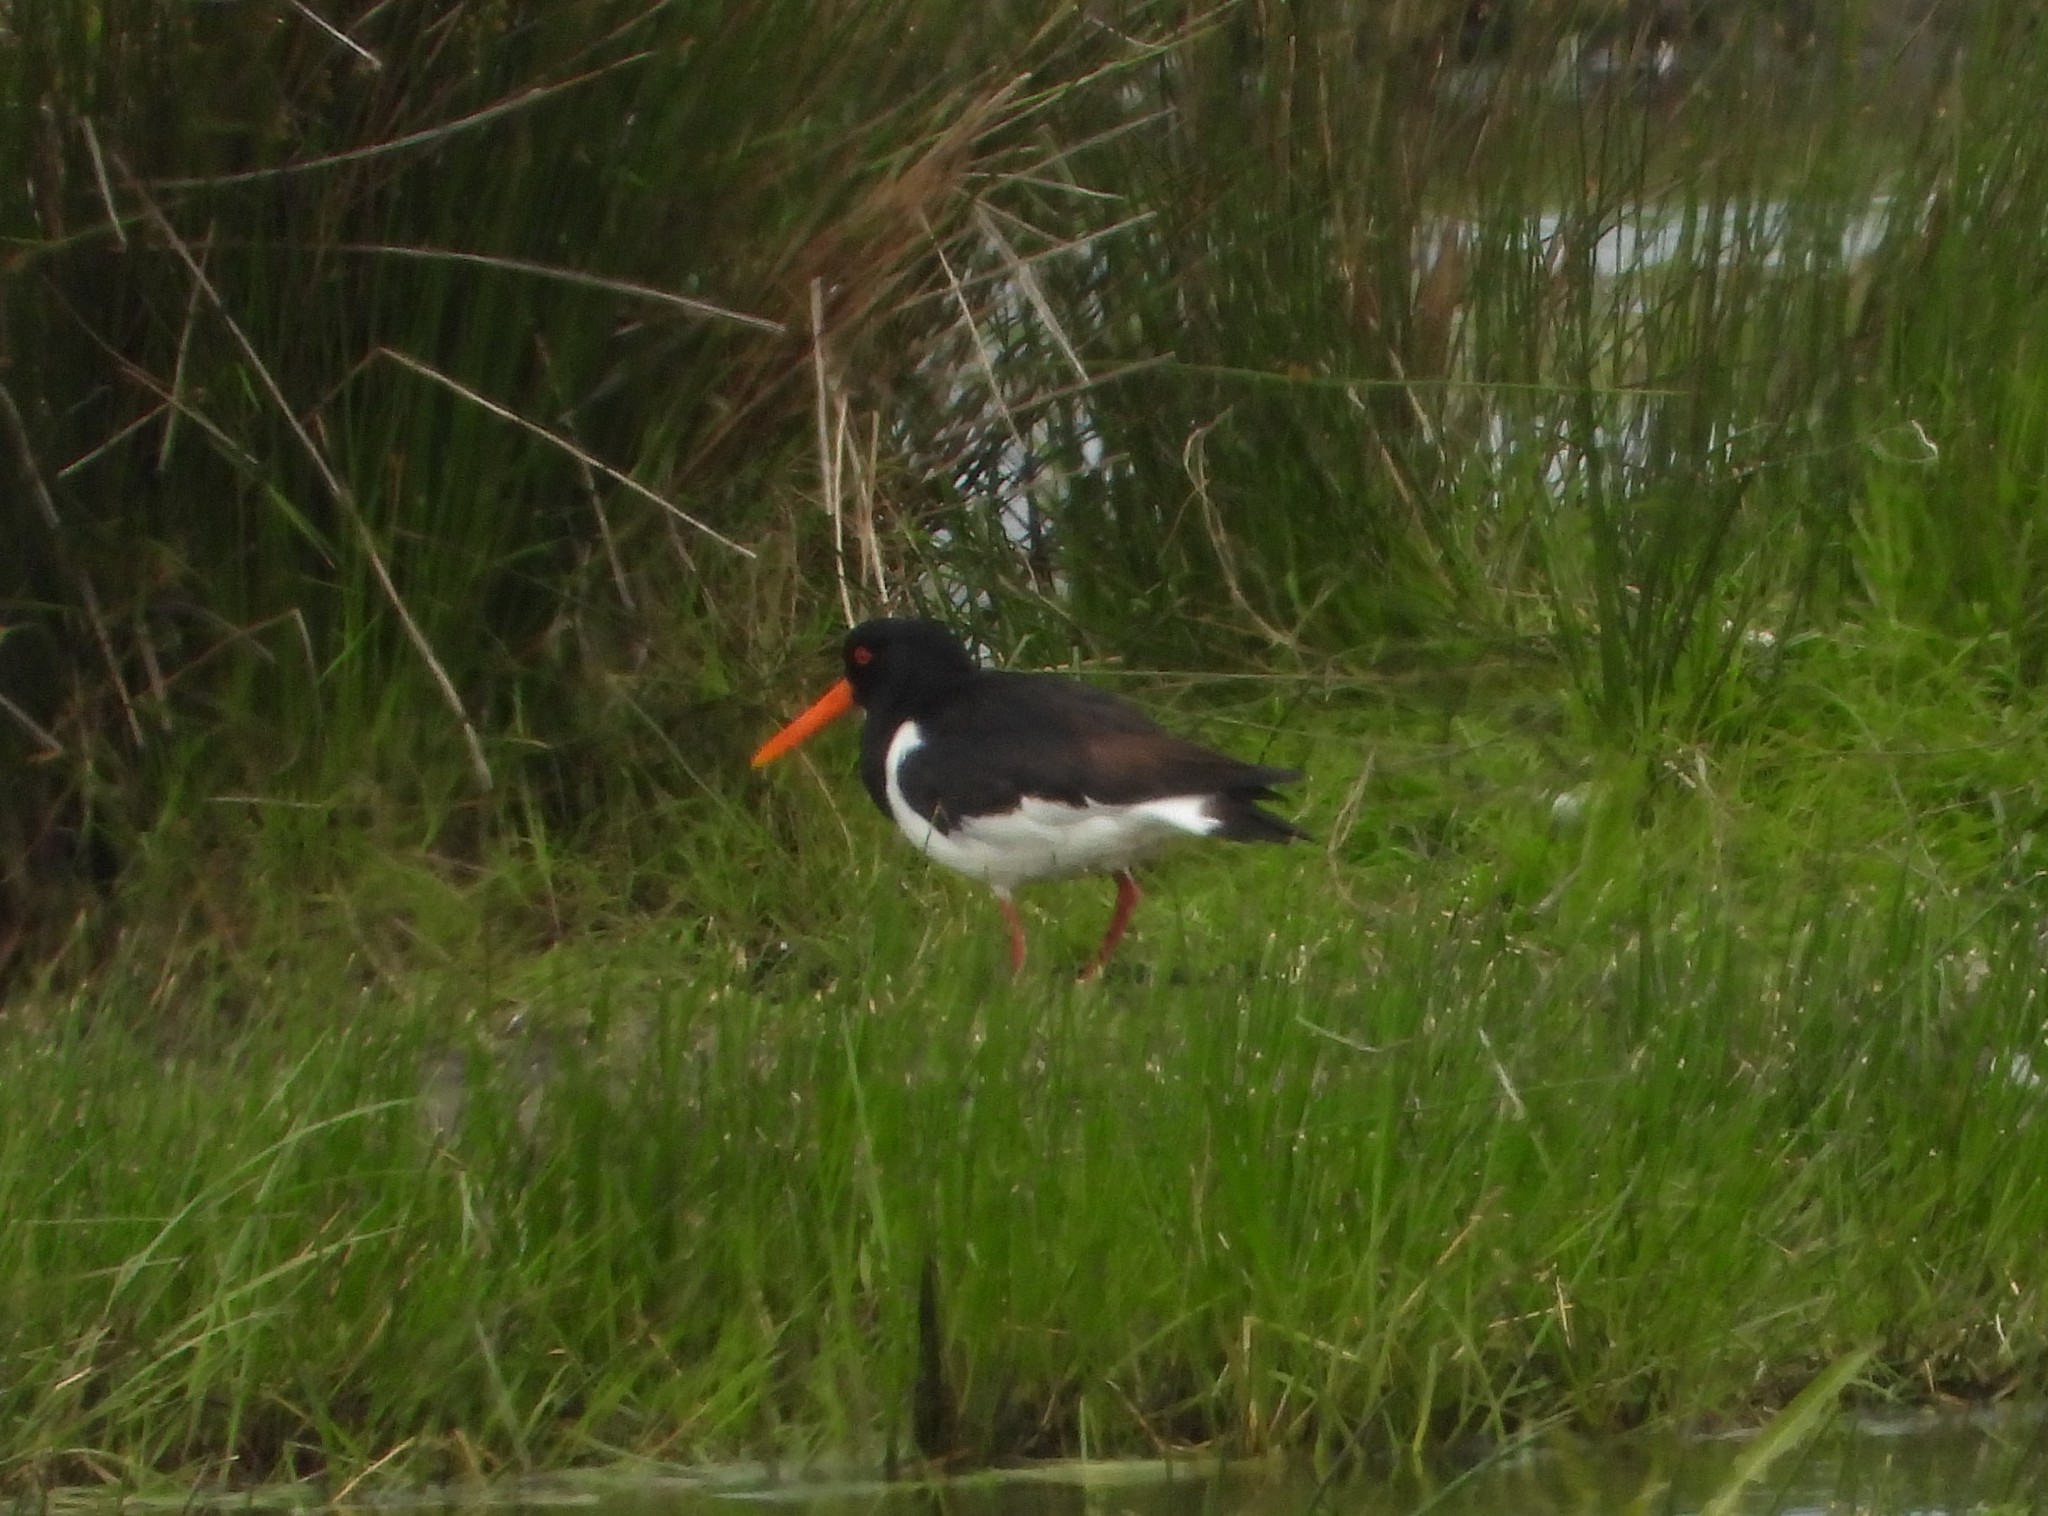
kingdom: Animalia
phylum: Chordata
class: Aves
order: Charadriiformes
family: Haematopodidae
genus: Haematopus
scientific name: Haematopus ostralegus
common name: Eurasian oystercatcher
